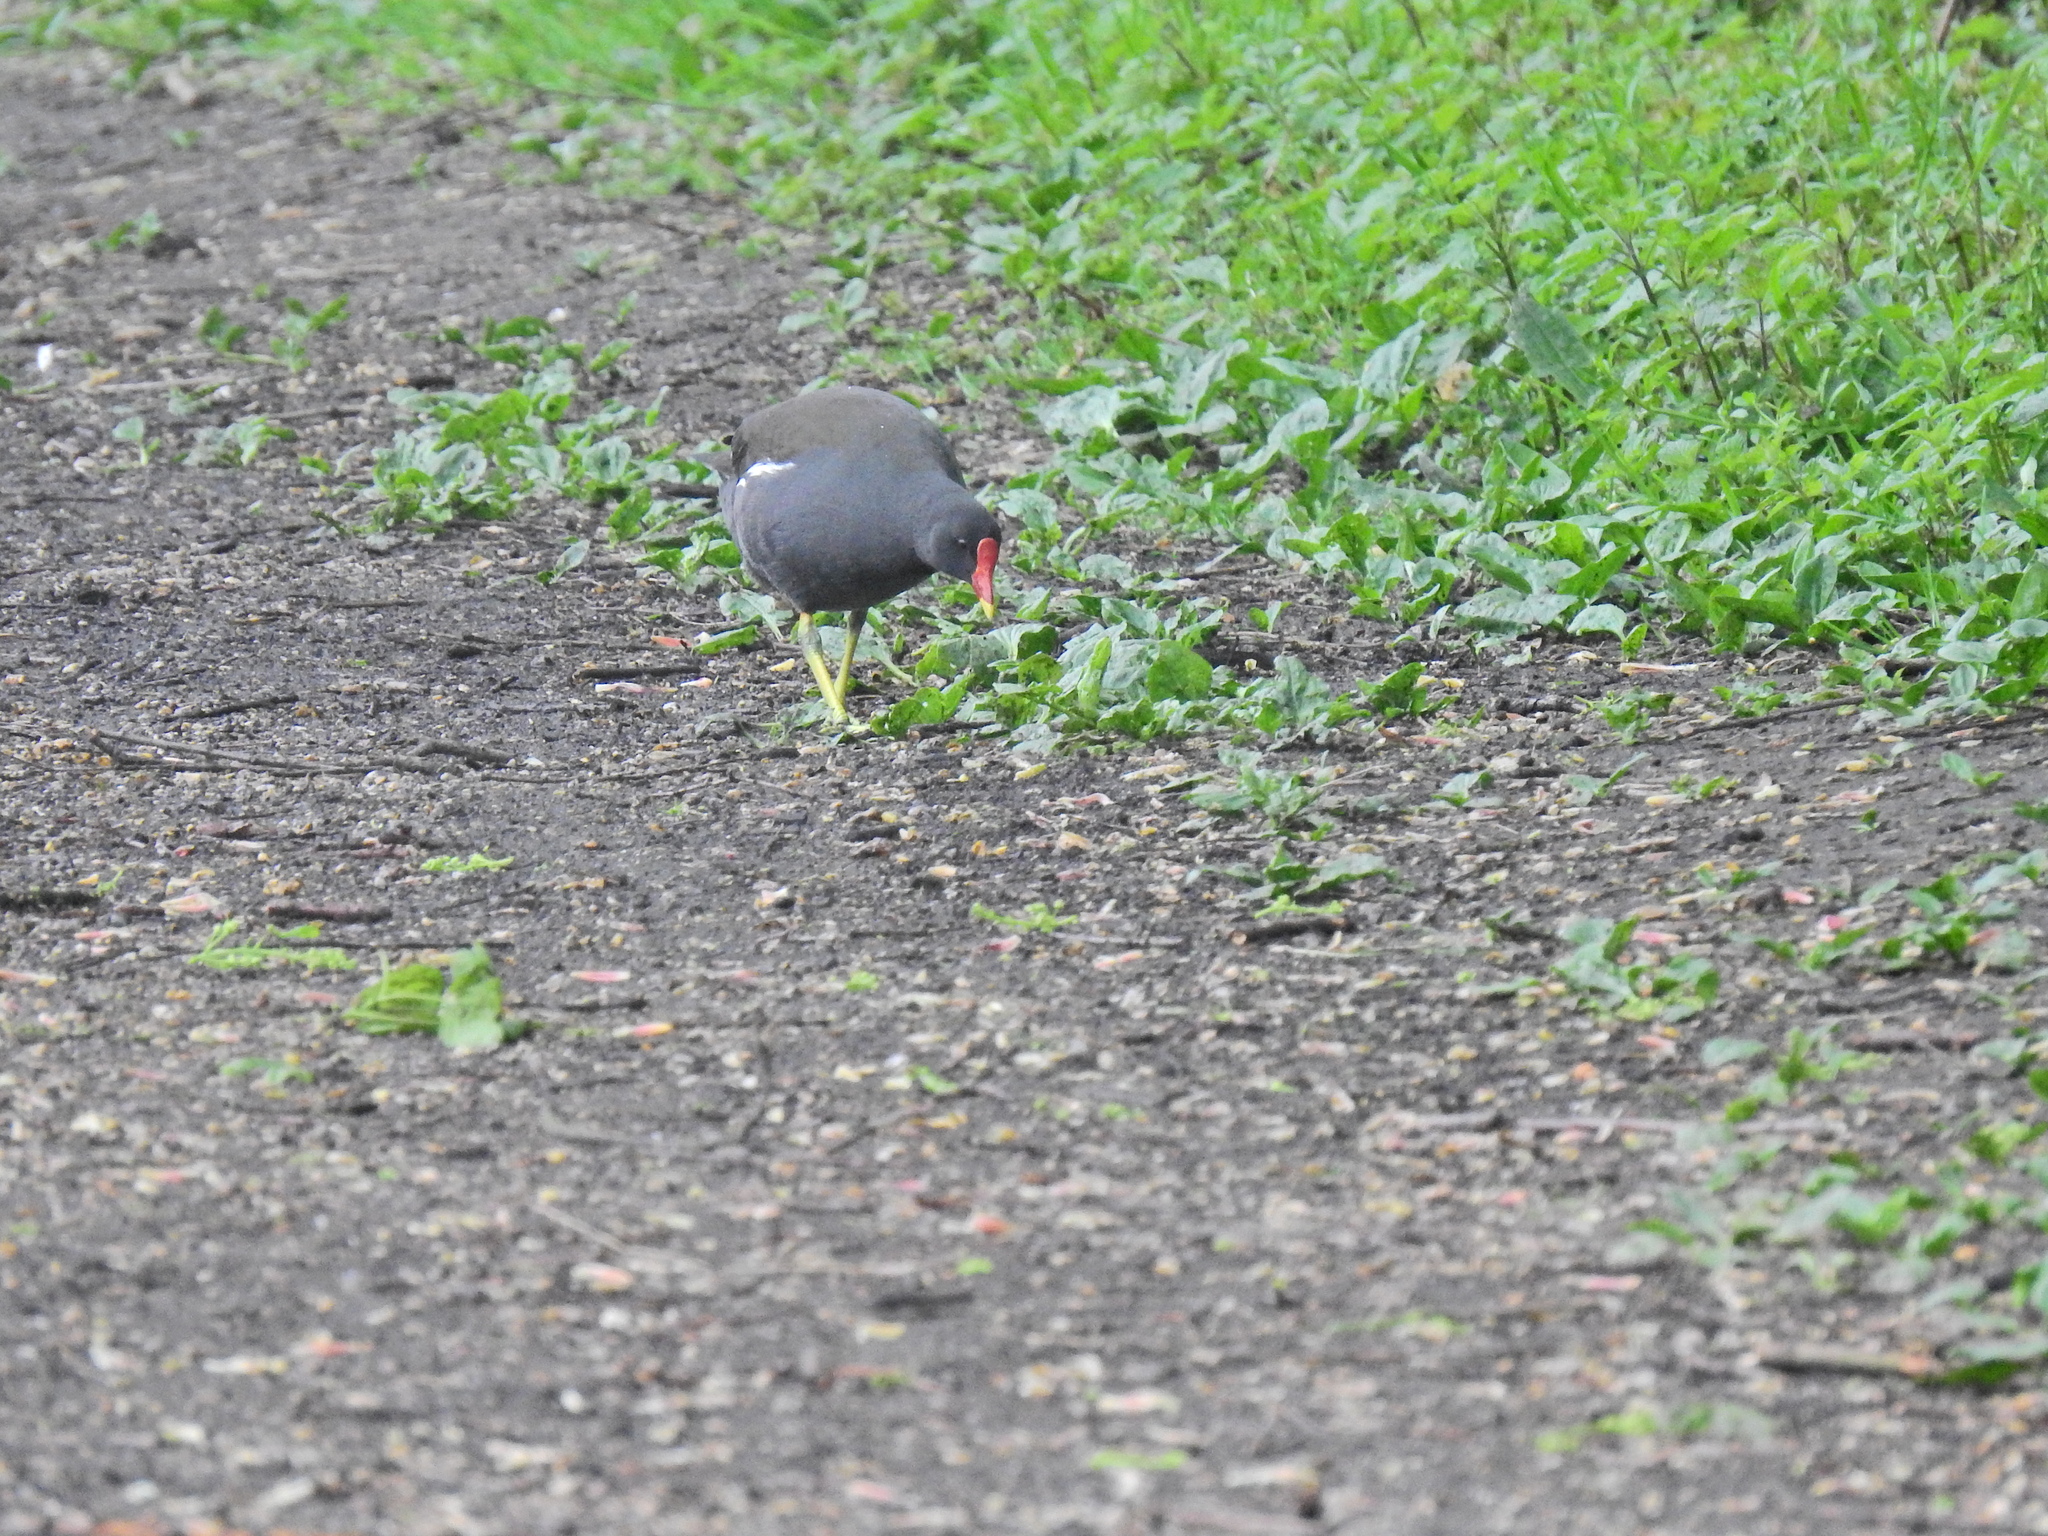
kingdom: Animalia
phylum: Chordata
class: Aves
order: Gruiformes
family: Rallidae
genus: Gallinula
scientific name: Gallinula chloropus
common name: Common moorhen
